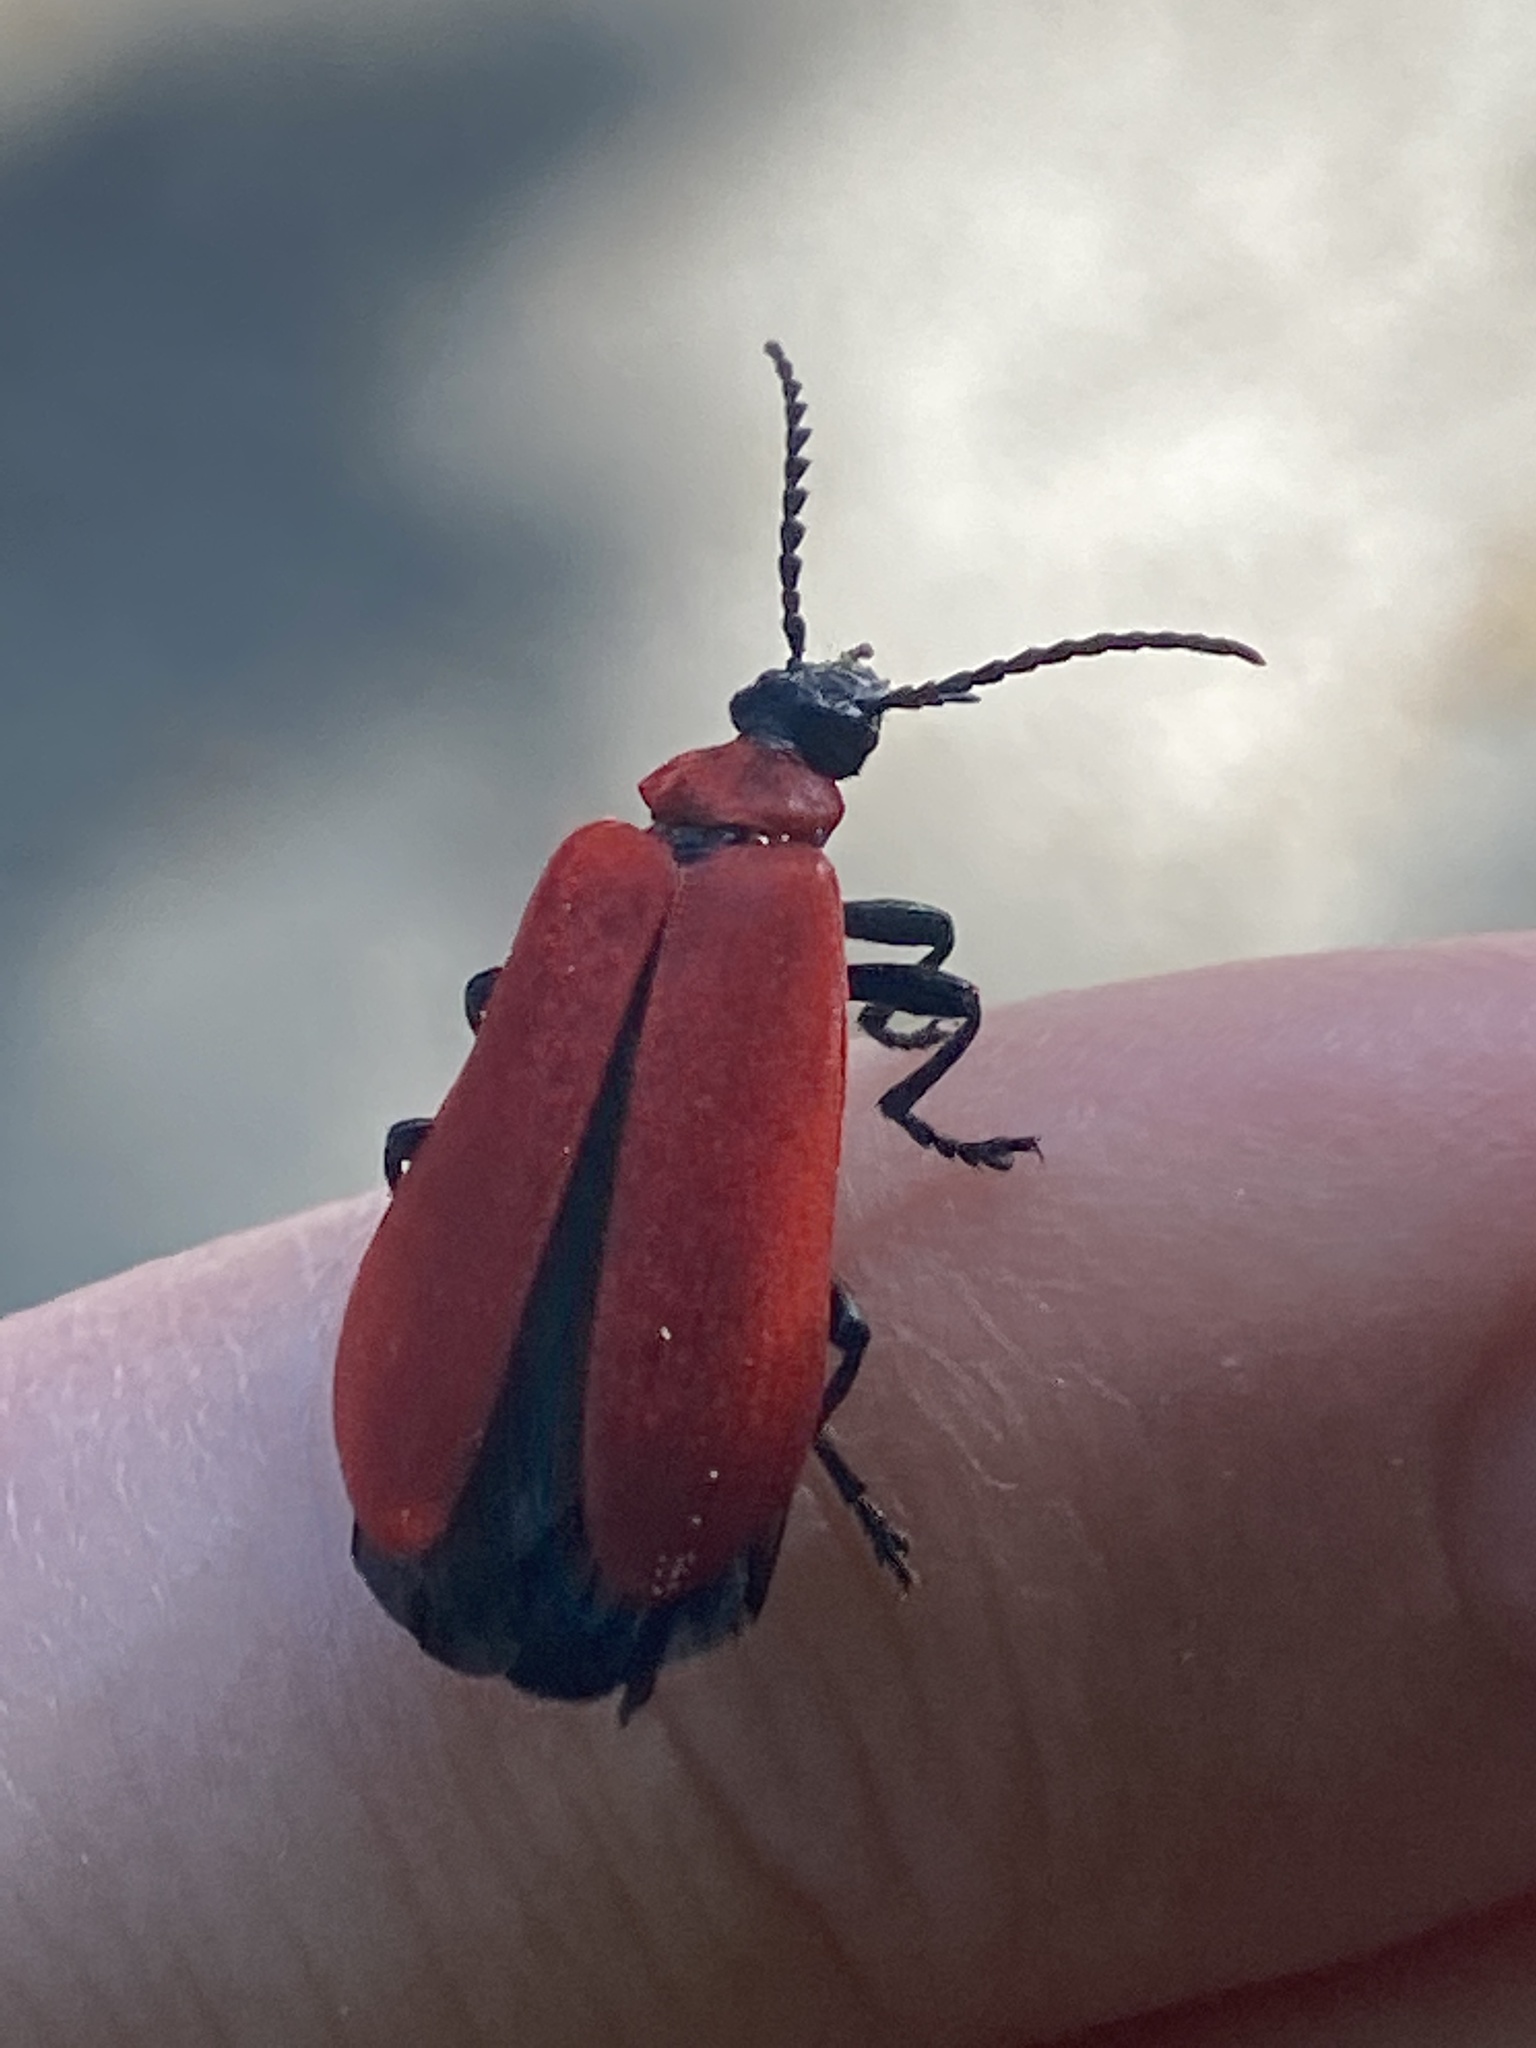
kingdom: Animalia
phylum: Arthropoda
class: Insecta
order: Coleoptera
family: Pyrochroidae
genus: Pyrochroa
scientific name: Pyrochroa coccinea
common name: Black-headed cardinal beetle
